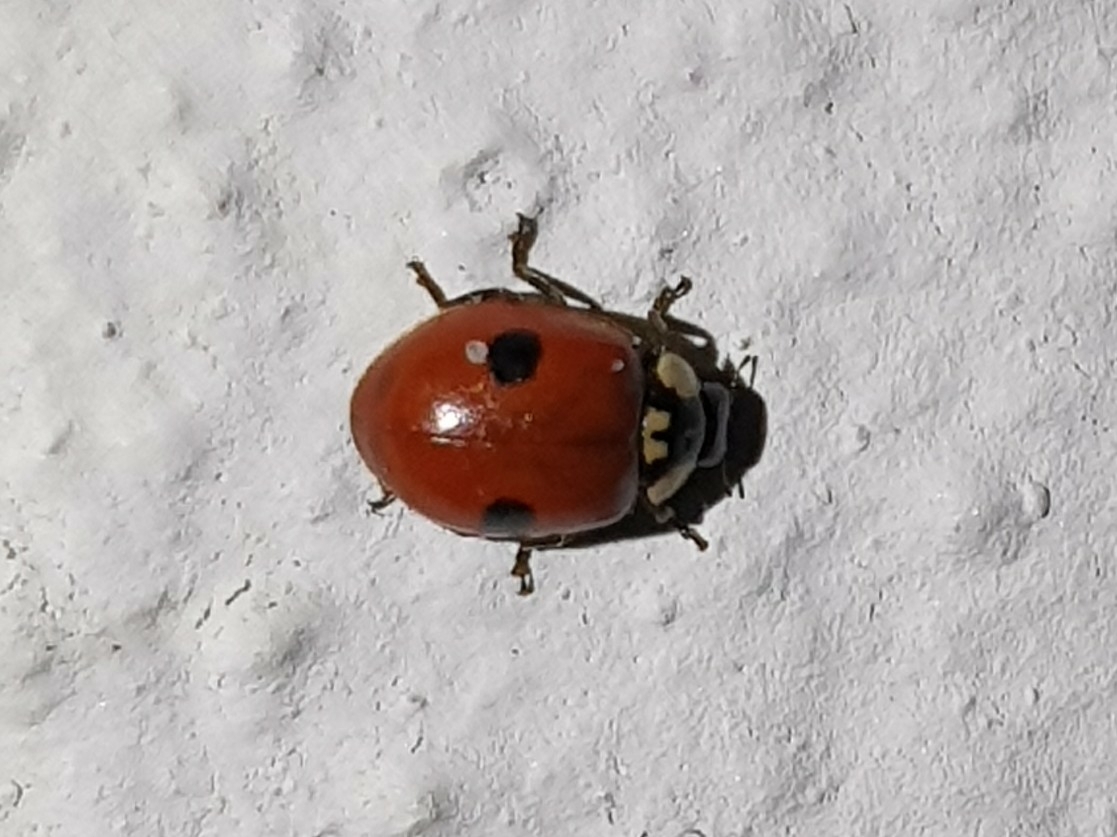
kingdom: Animalia
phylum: Arthropoda
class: Insecta
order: Coleoptera
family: Coccinellidae
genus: Adalia
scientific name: Adalia bipunctata
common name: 2-spot ladybird
